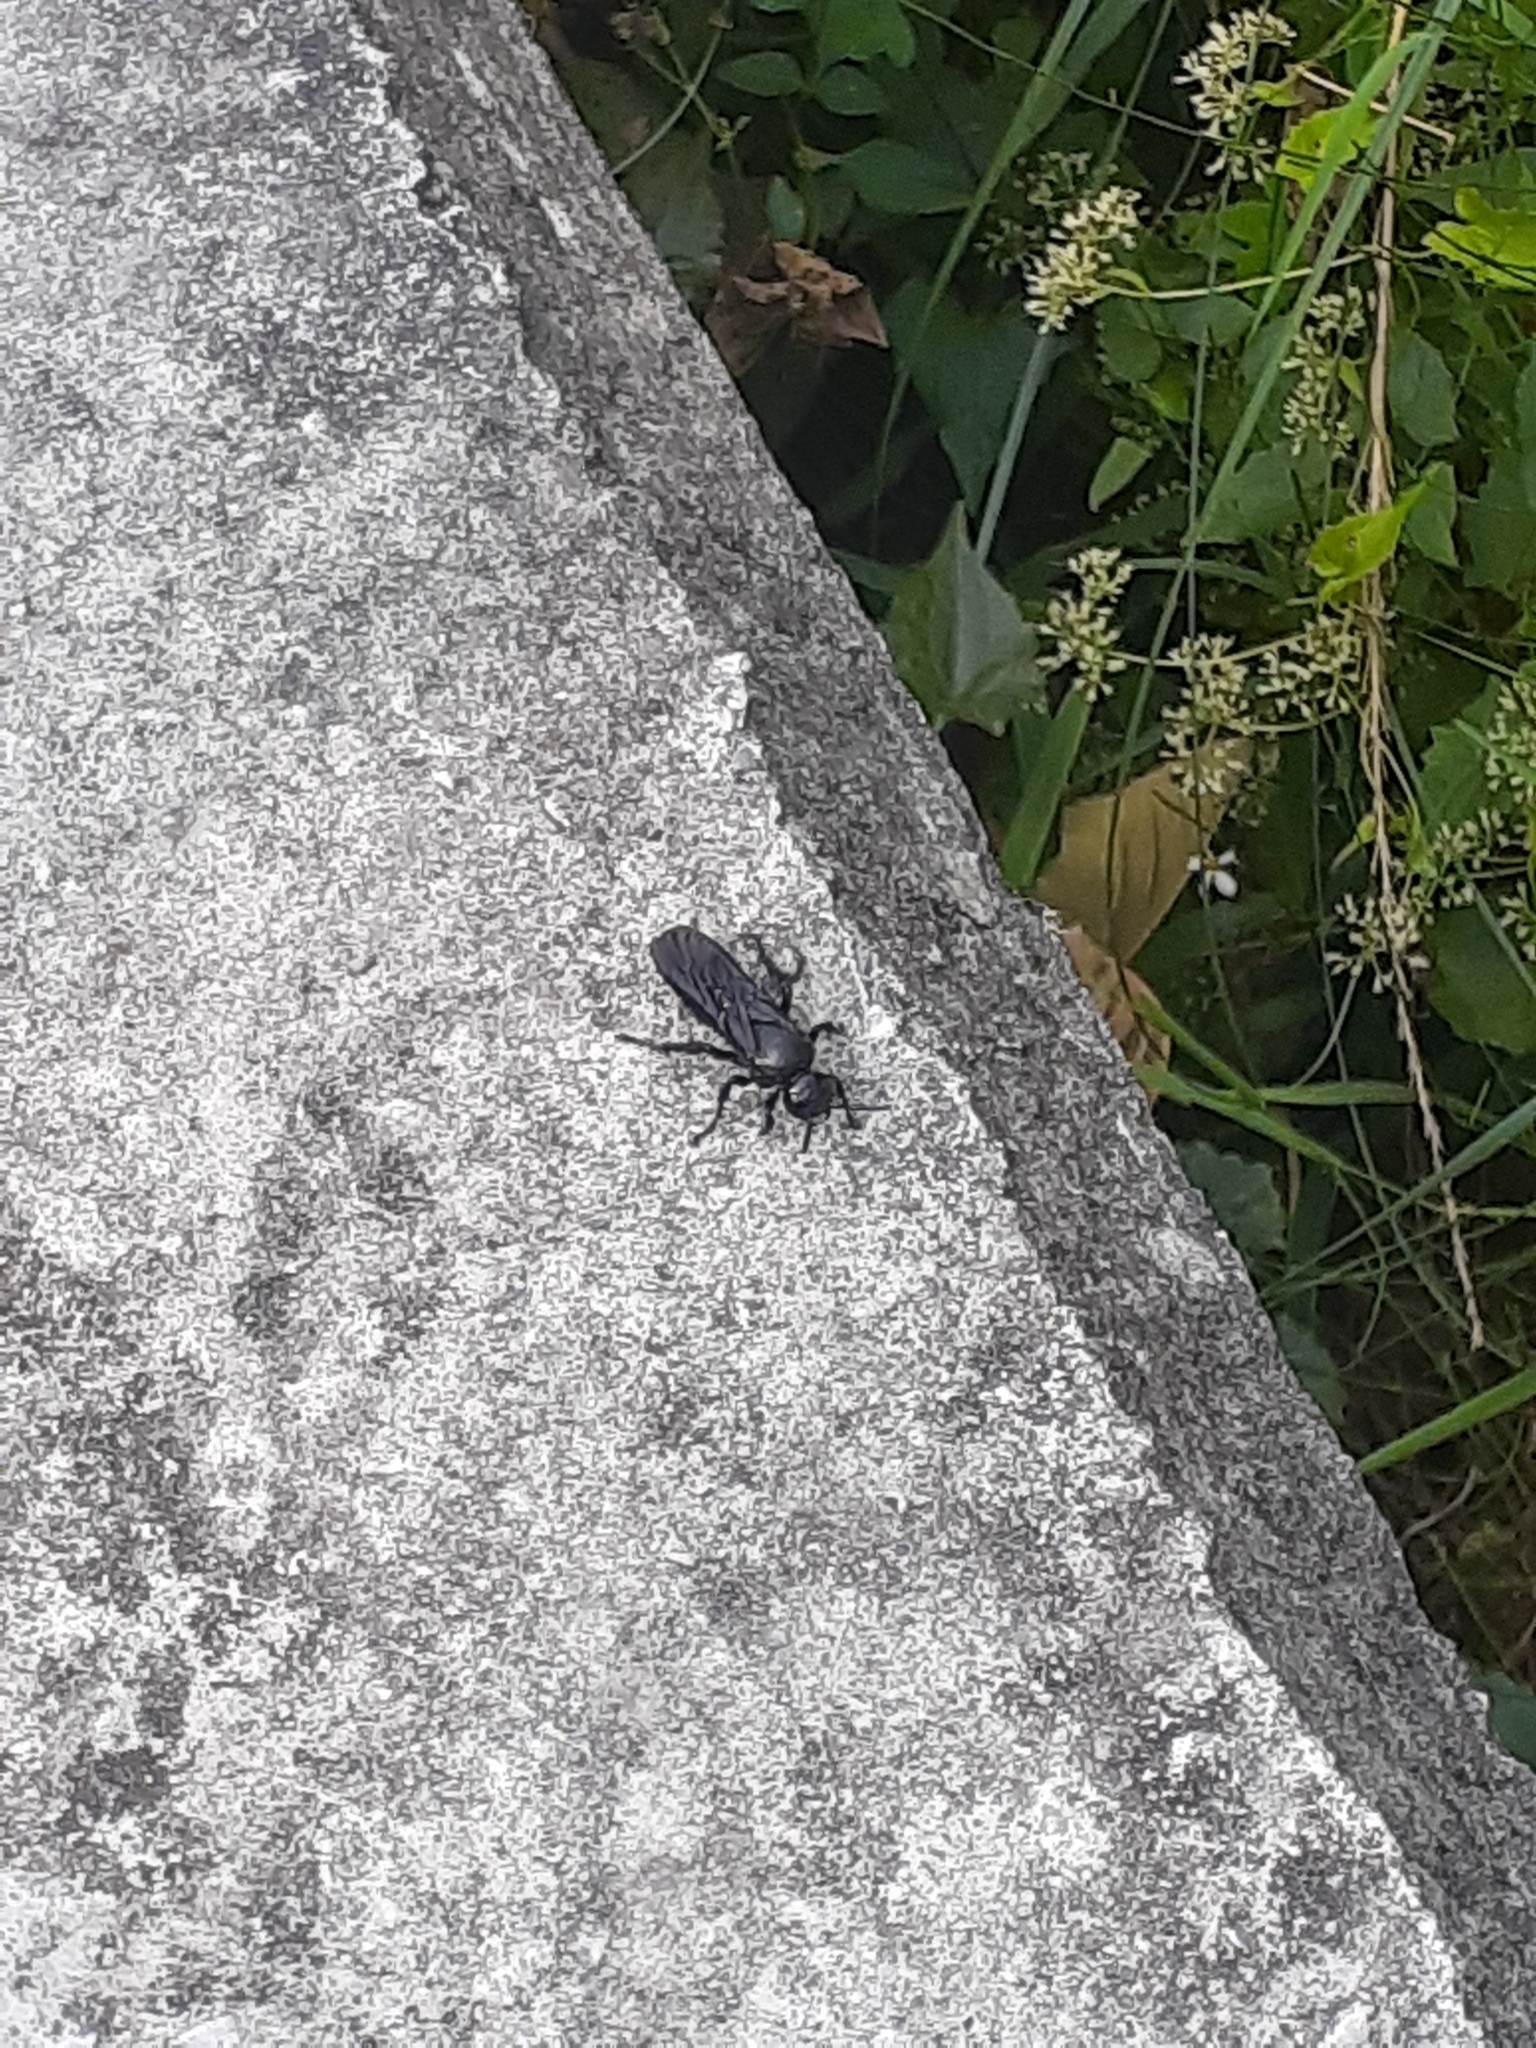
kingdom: Animalia
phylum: Arthropoda
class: Insecta
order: Hymenoptera
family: Scoliidae
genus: Liacos
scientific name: Liacos erythrosoma
